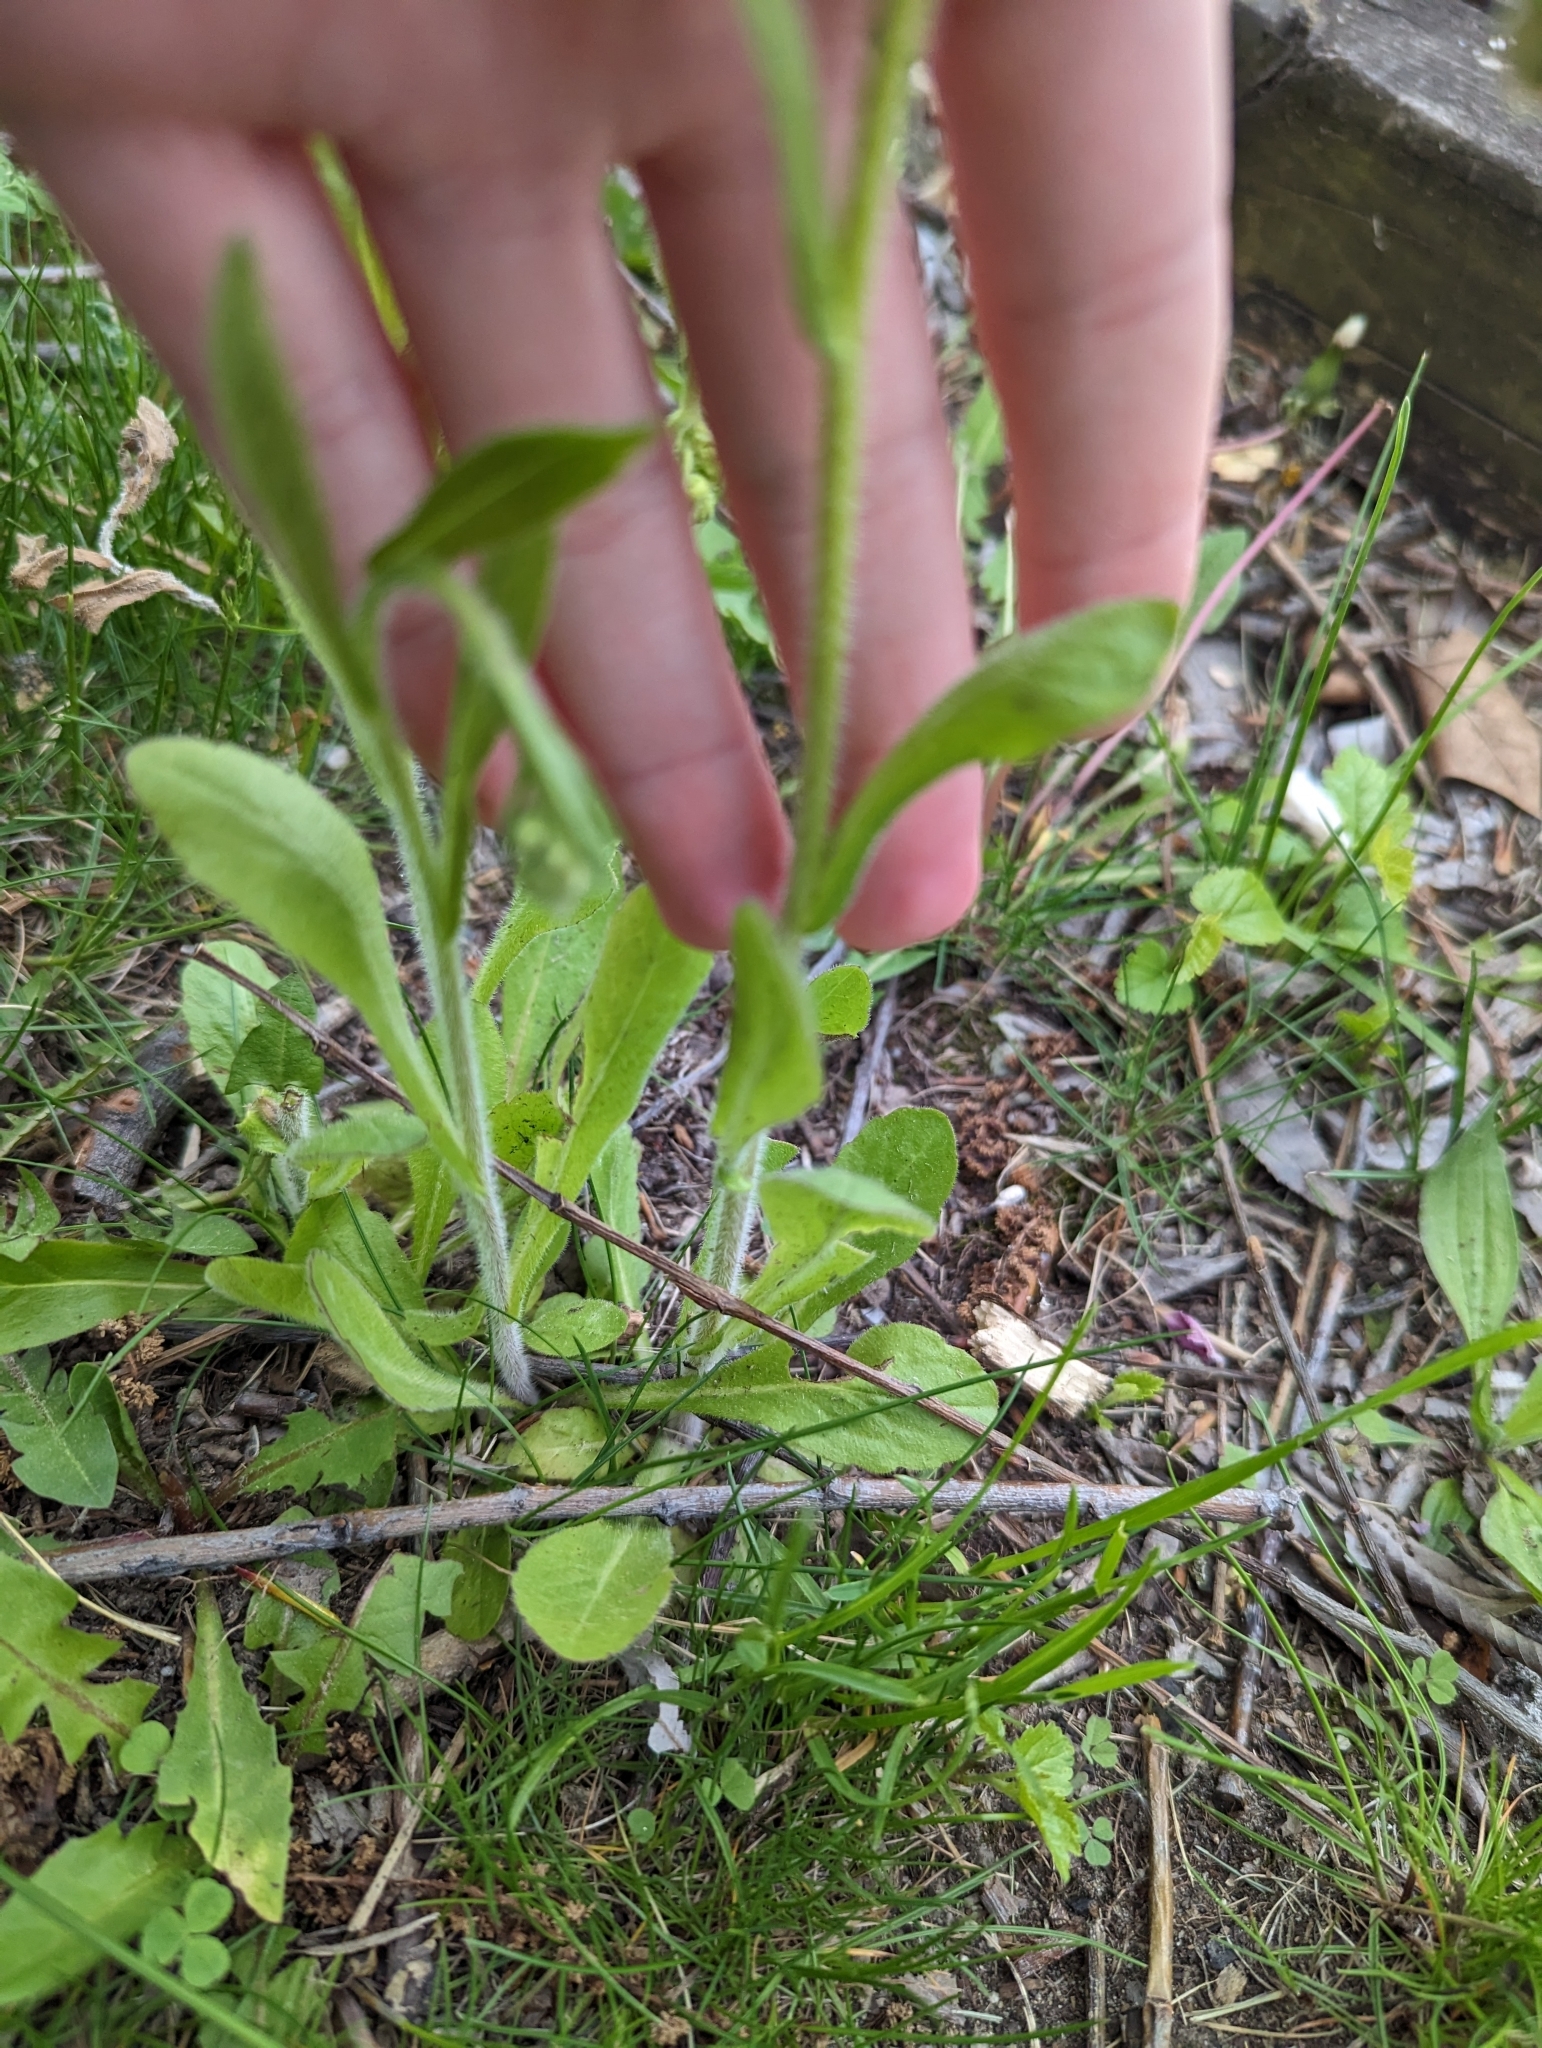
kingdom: Plantae
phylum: Tracheophyta
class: Magnoliopsida
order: Asterales
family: Asteraceae
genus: Erigeron
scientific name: Erigeron philadelphicus
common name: Robin's-plantain
